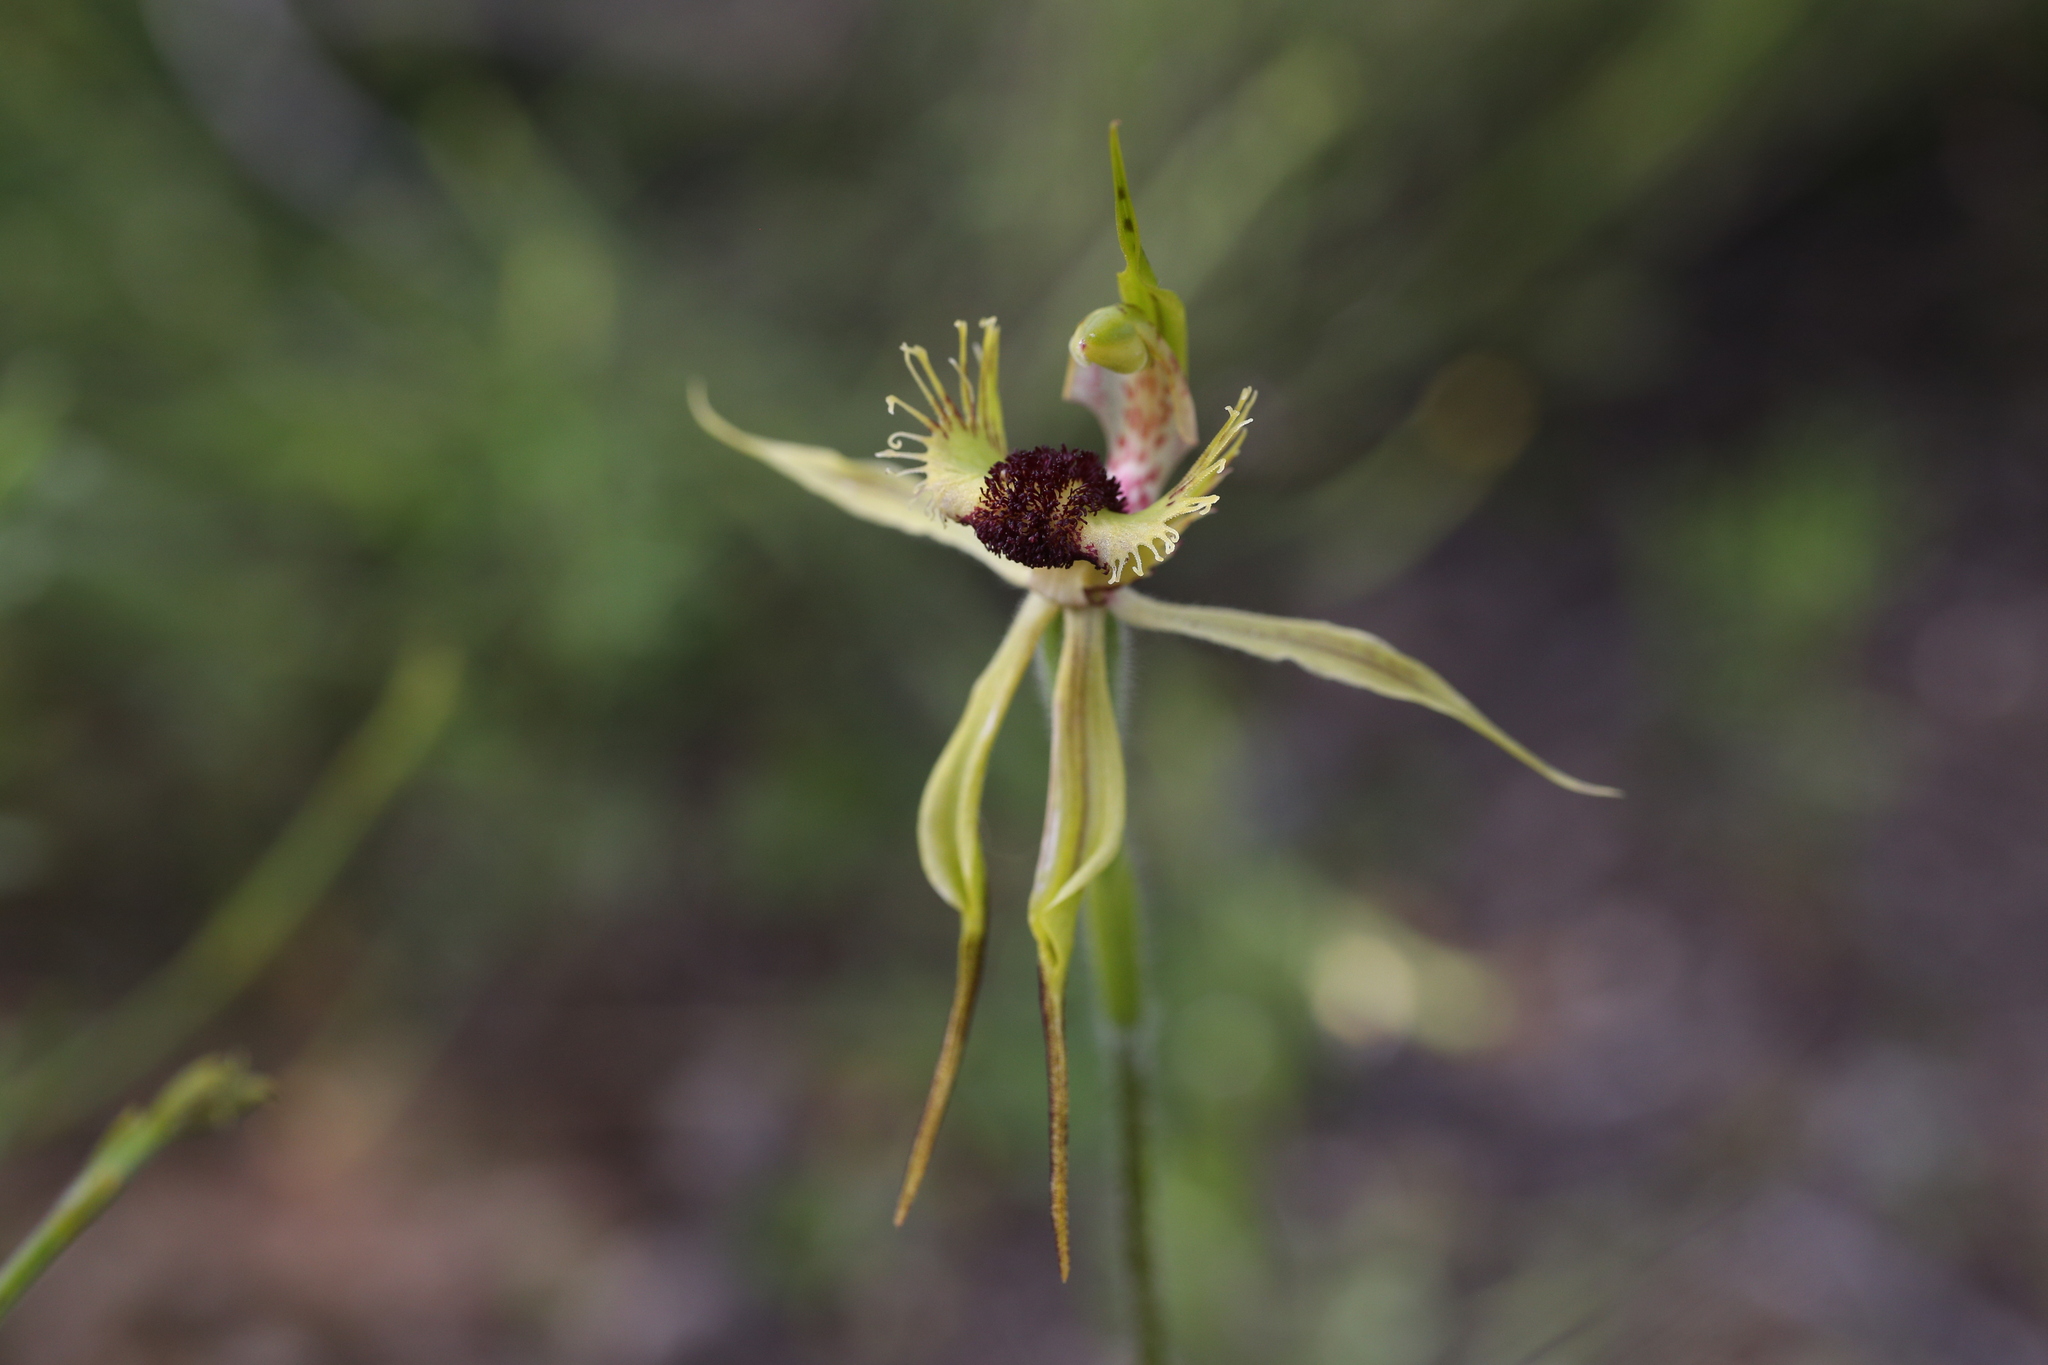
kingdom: Plantae
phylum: Tracheophyta
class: Liliopsida
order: Asparagales
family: Orchidaceae
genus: Caladenia
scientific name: Caladenia crebra
